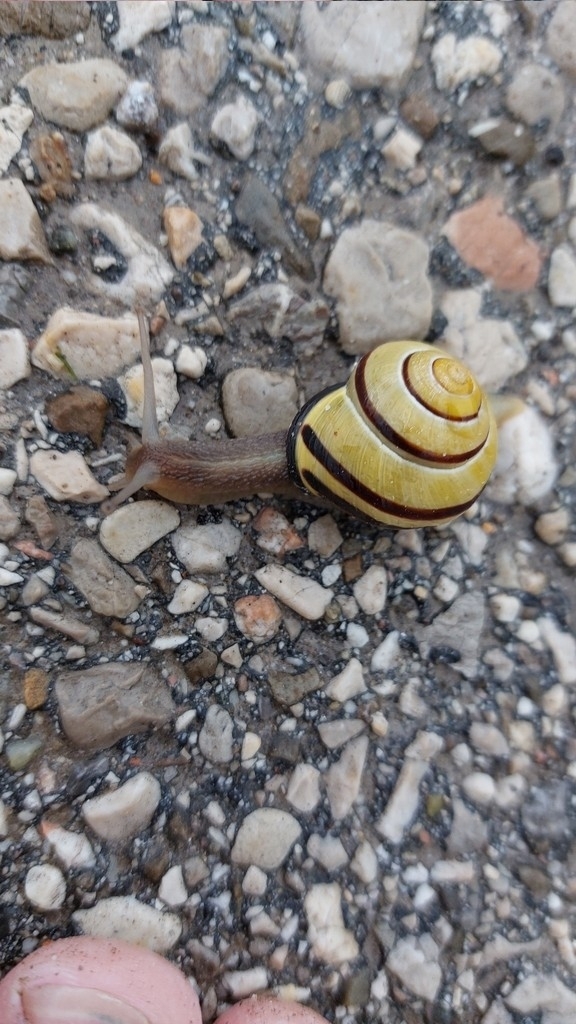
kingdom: Animalia
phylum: Mollusca
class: Gastropoda
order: Stylommatophora
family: Helicidae
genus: Cepaea
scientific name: Cepaea nemoralis
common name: Grovesnail
